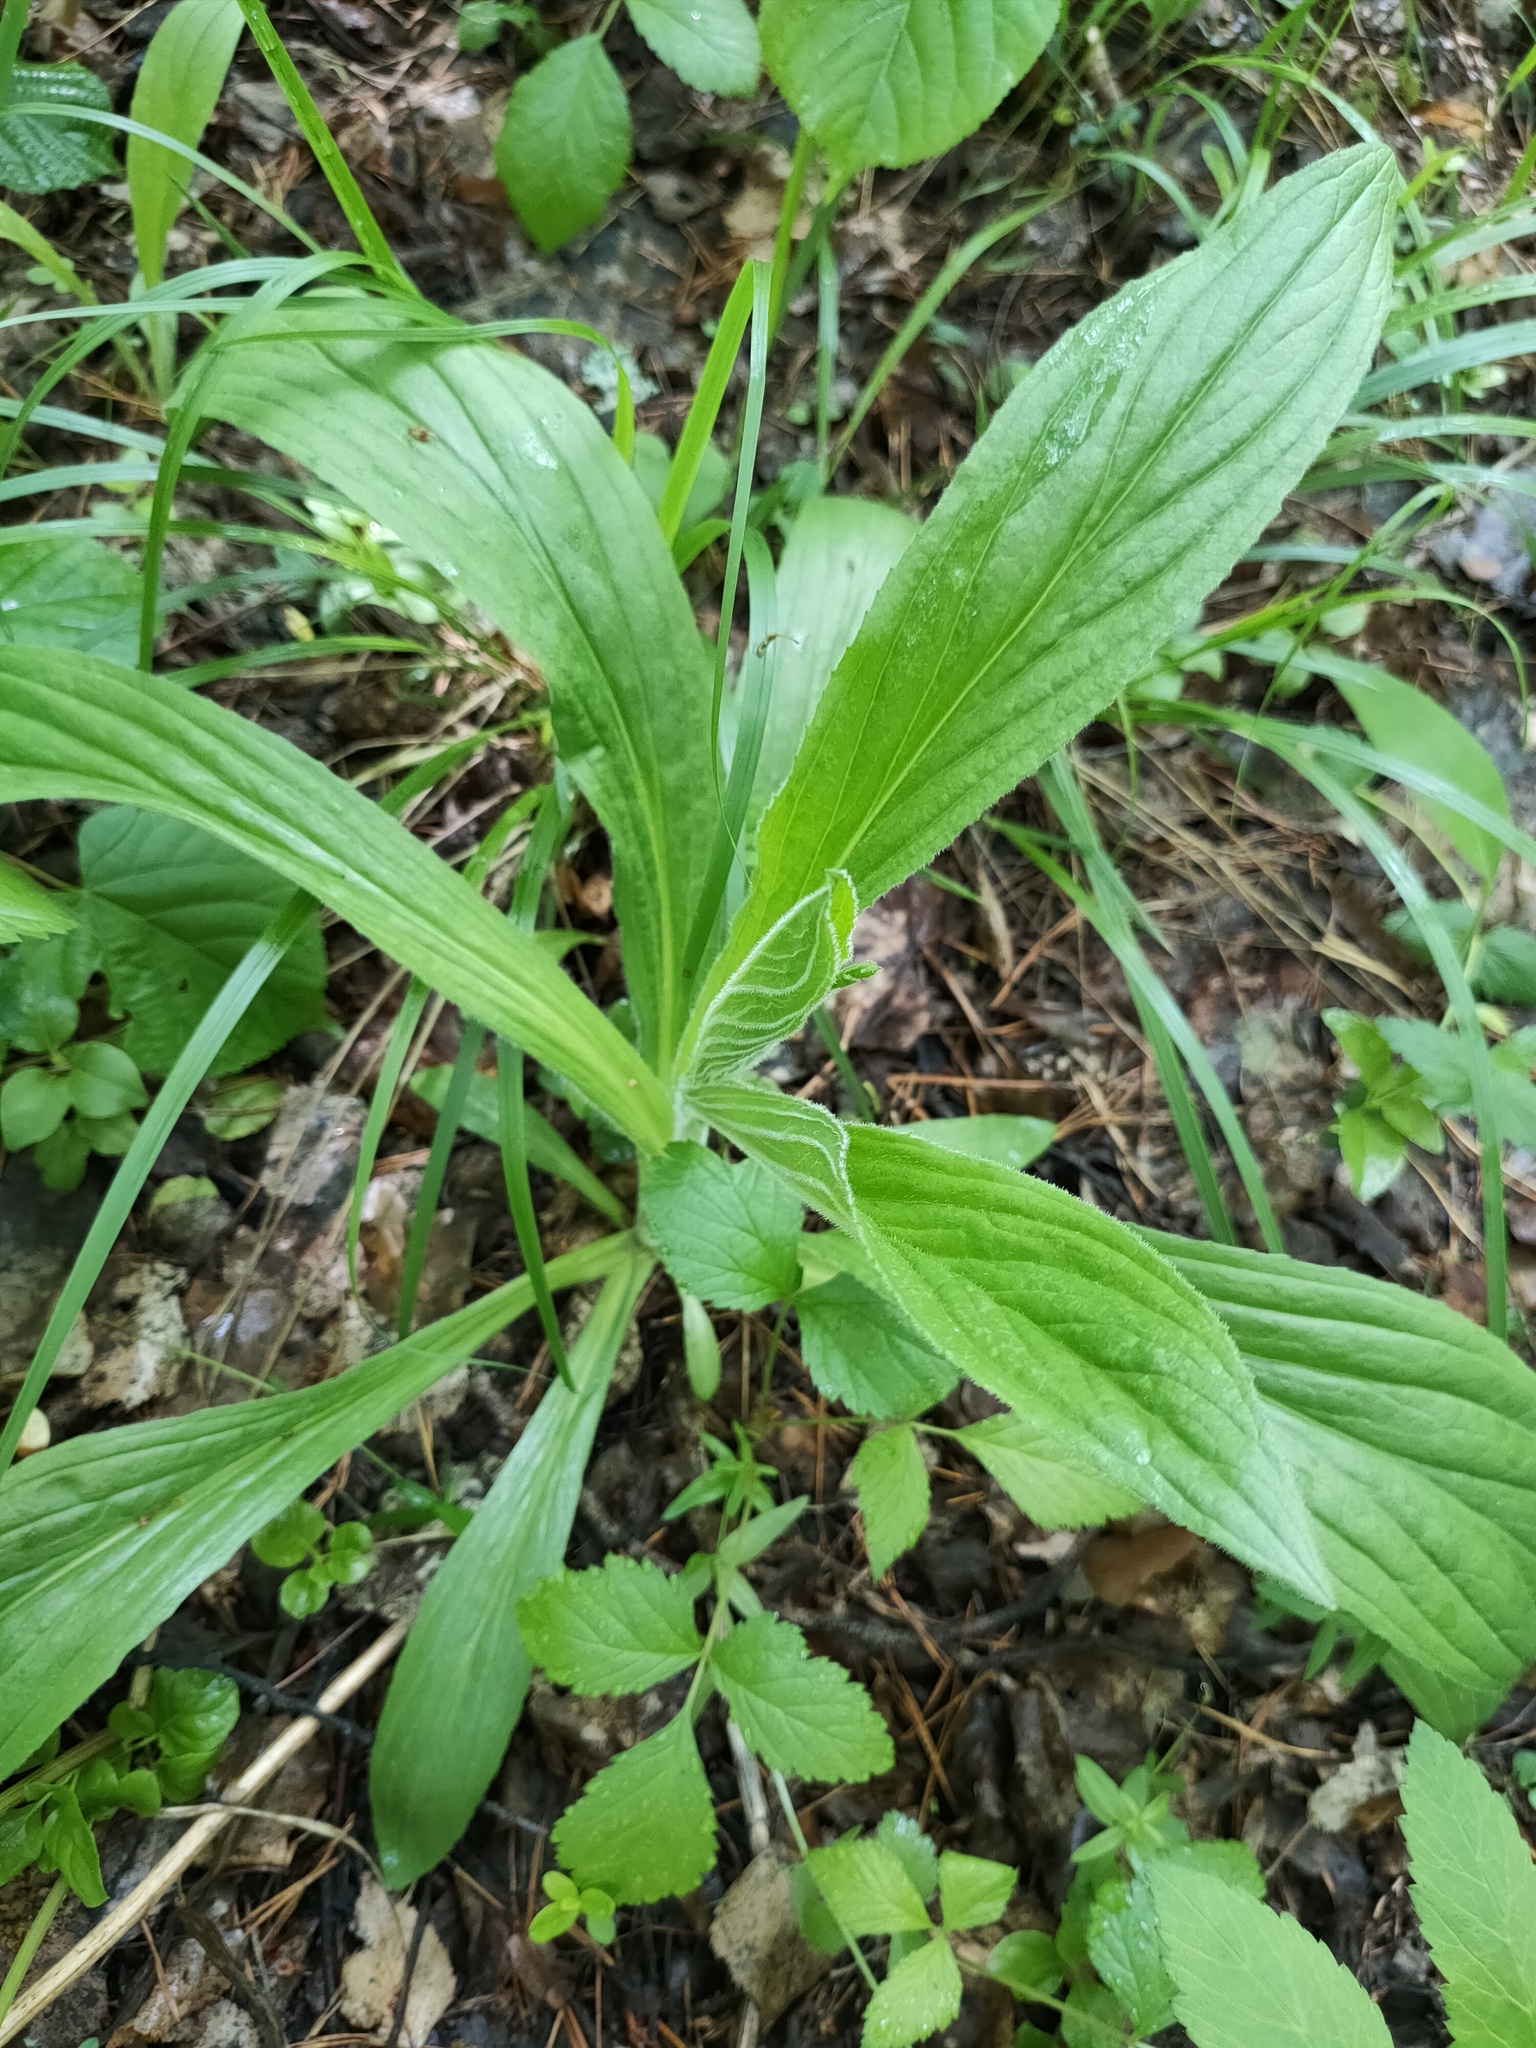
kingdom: Plantae
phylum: Tracheophyta
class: Magnoliopsida
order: Lamiales
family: Plantaginaceae
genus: Digitalis
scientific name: Digitalis grandiflora
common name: Yellow foxglove
